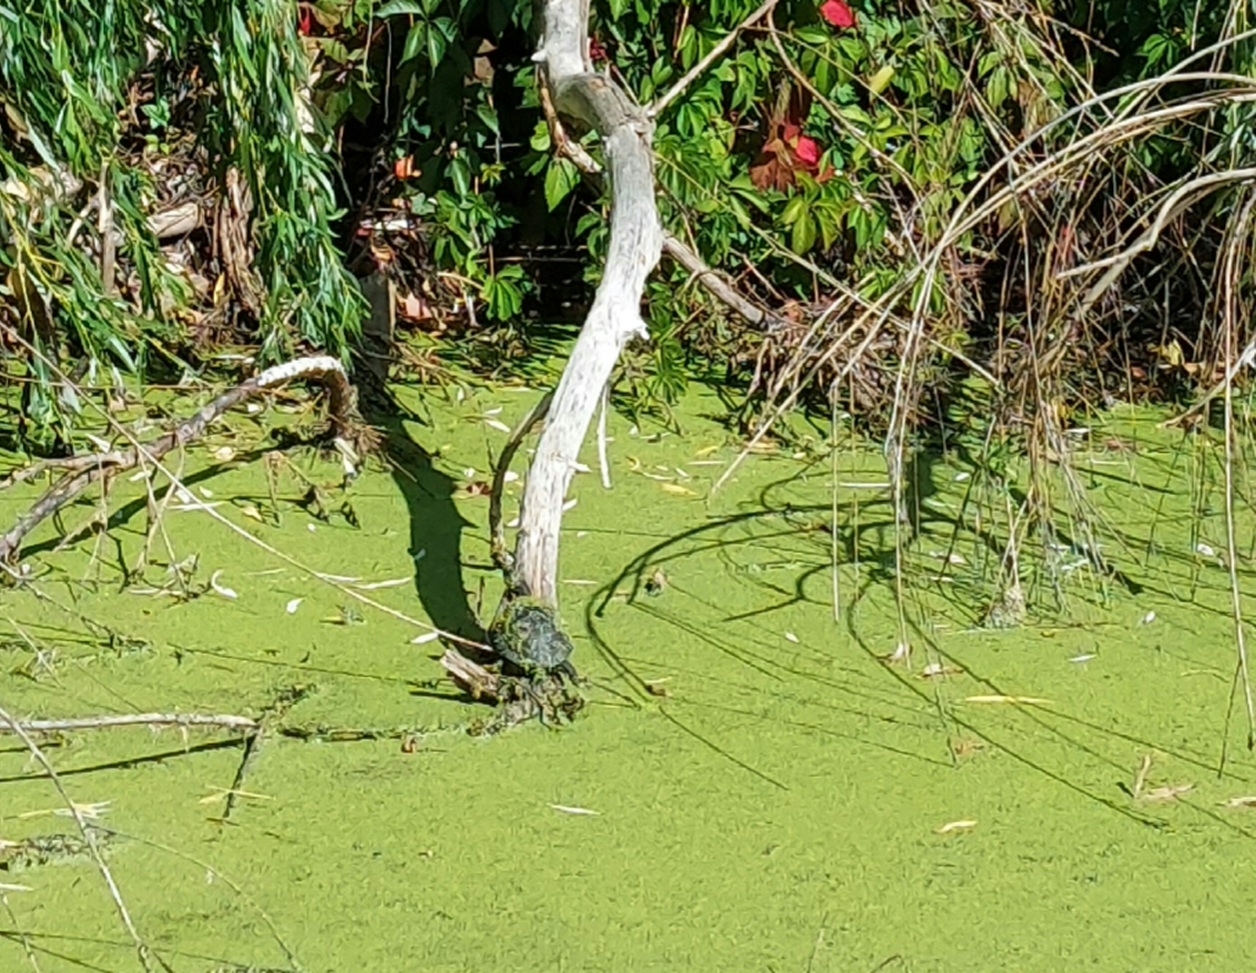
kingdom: Animalia
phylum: Chordata
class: Testudines
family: Emydidae
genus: Emys
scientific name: Emys orbicularis
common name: European pond turtle
